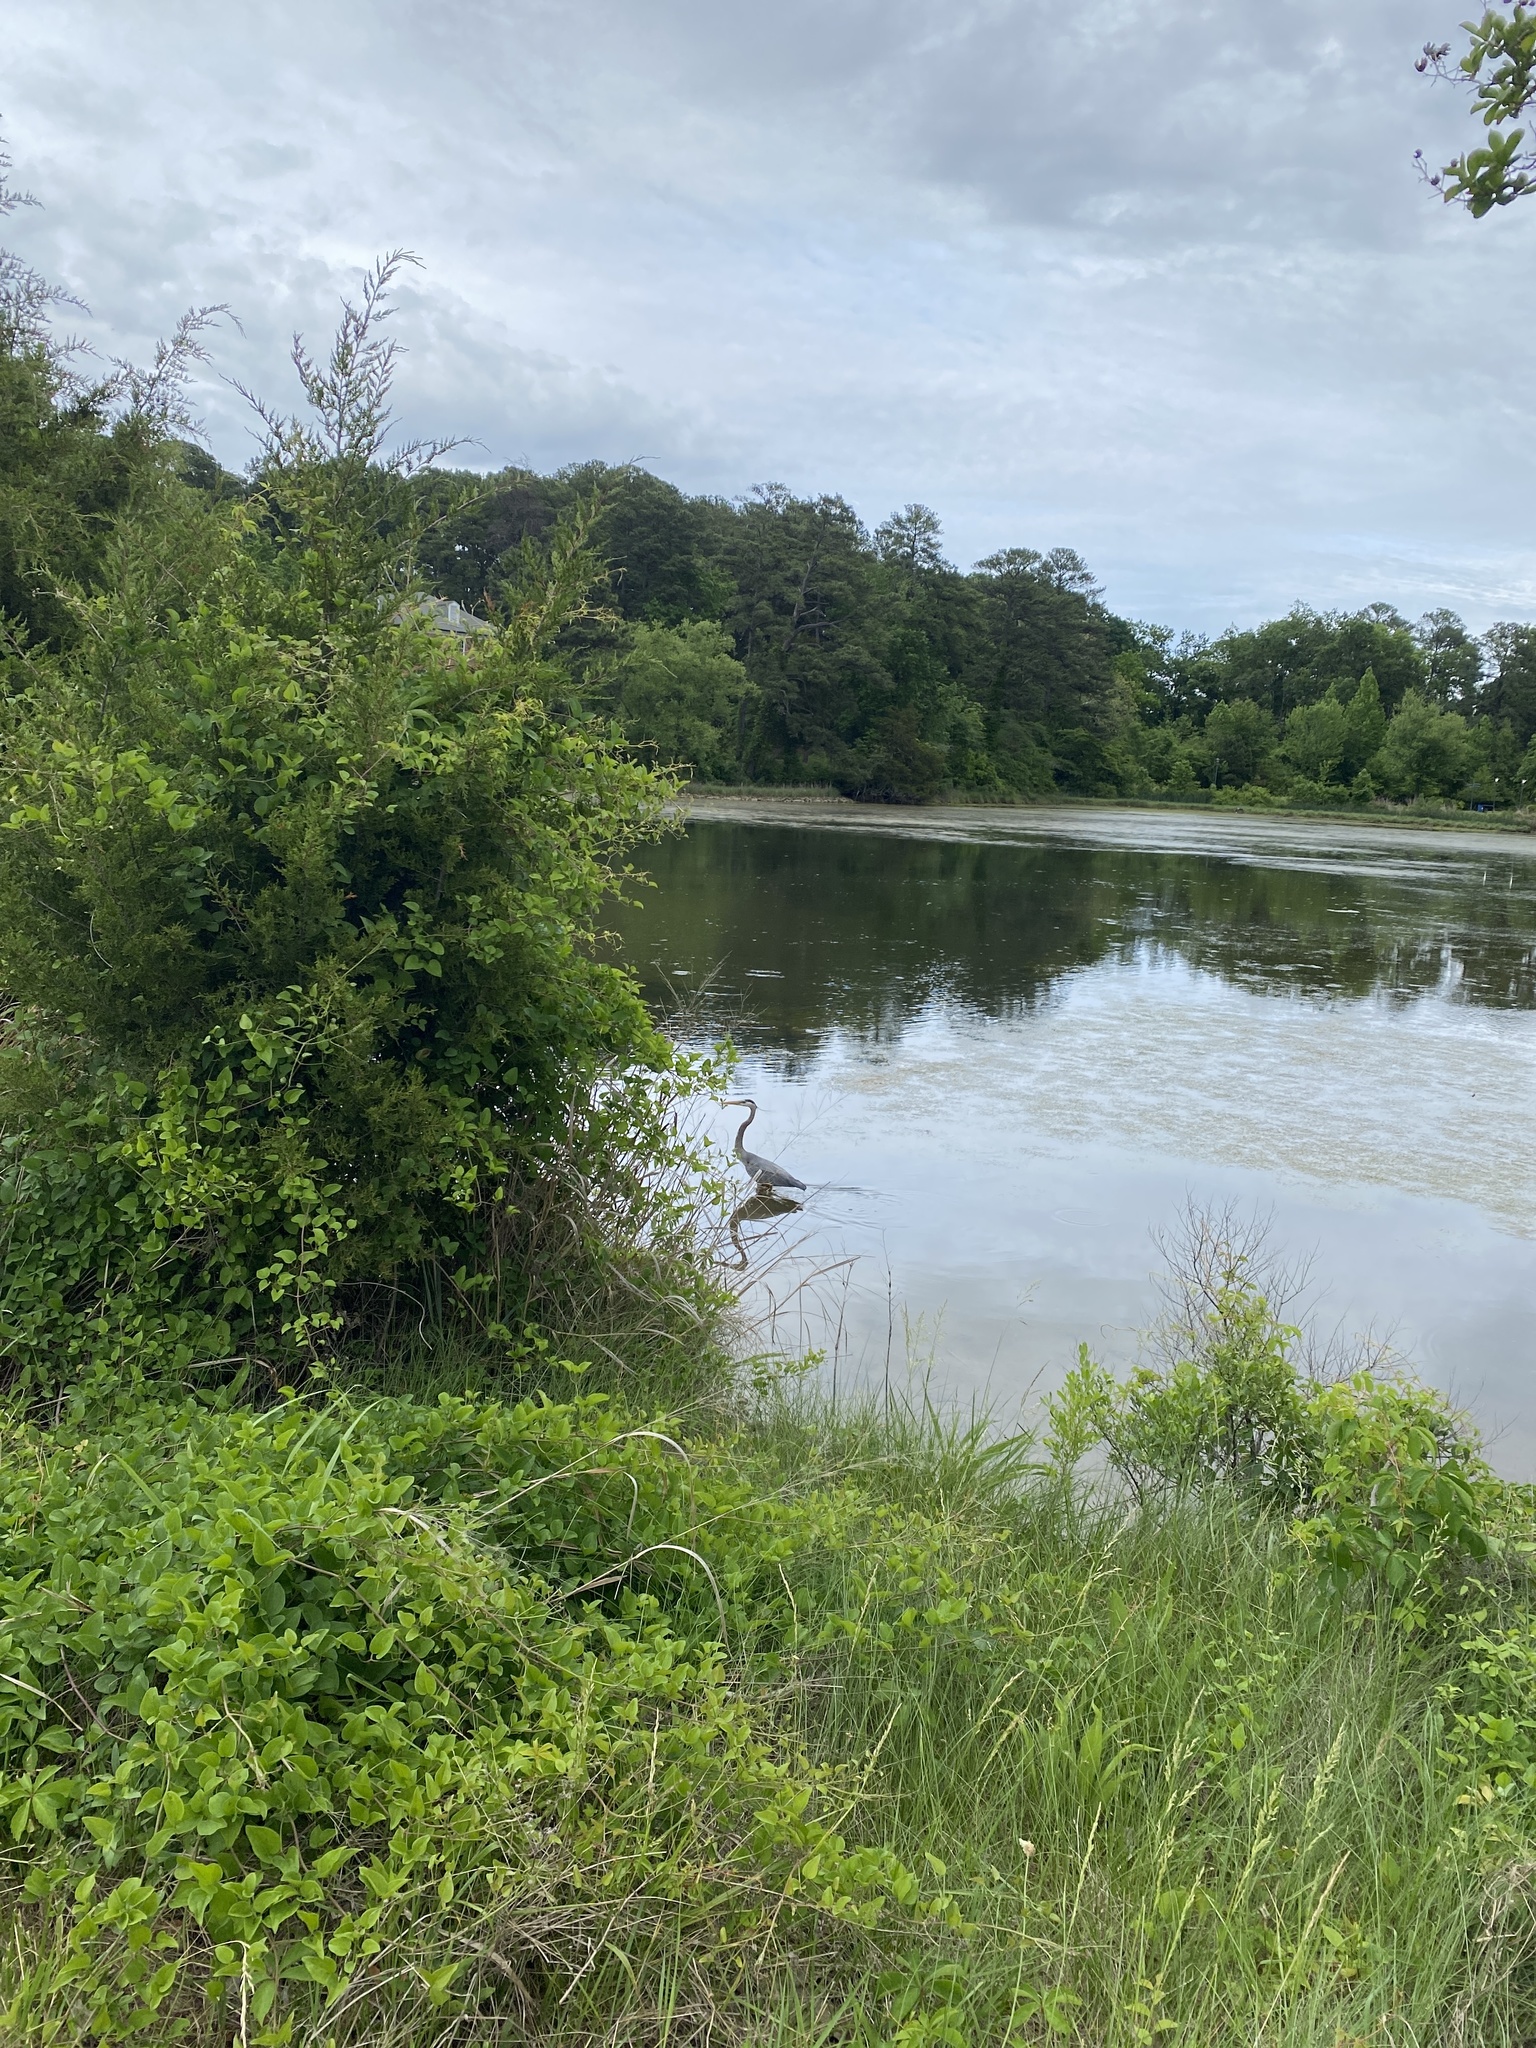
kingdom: Animalia
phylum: Chordata
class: Aves
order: Pelecaniformes
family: Ardeidae
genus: Ardea
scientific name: Ardea herodias
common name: Great blue heron
